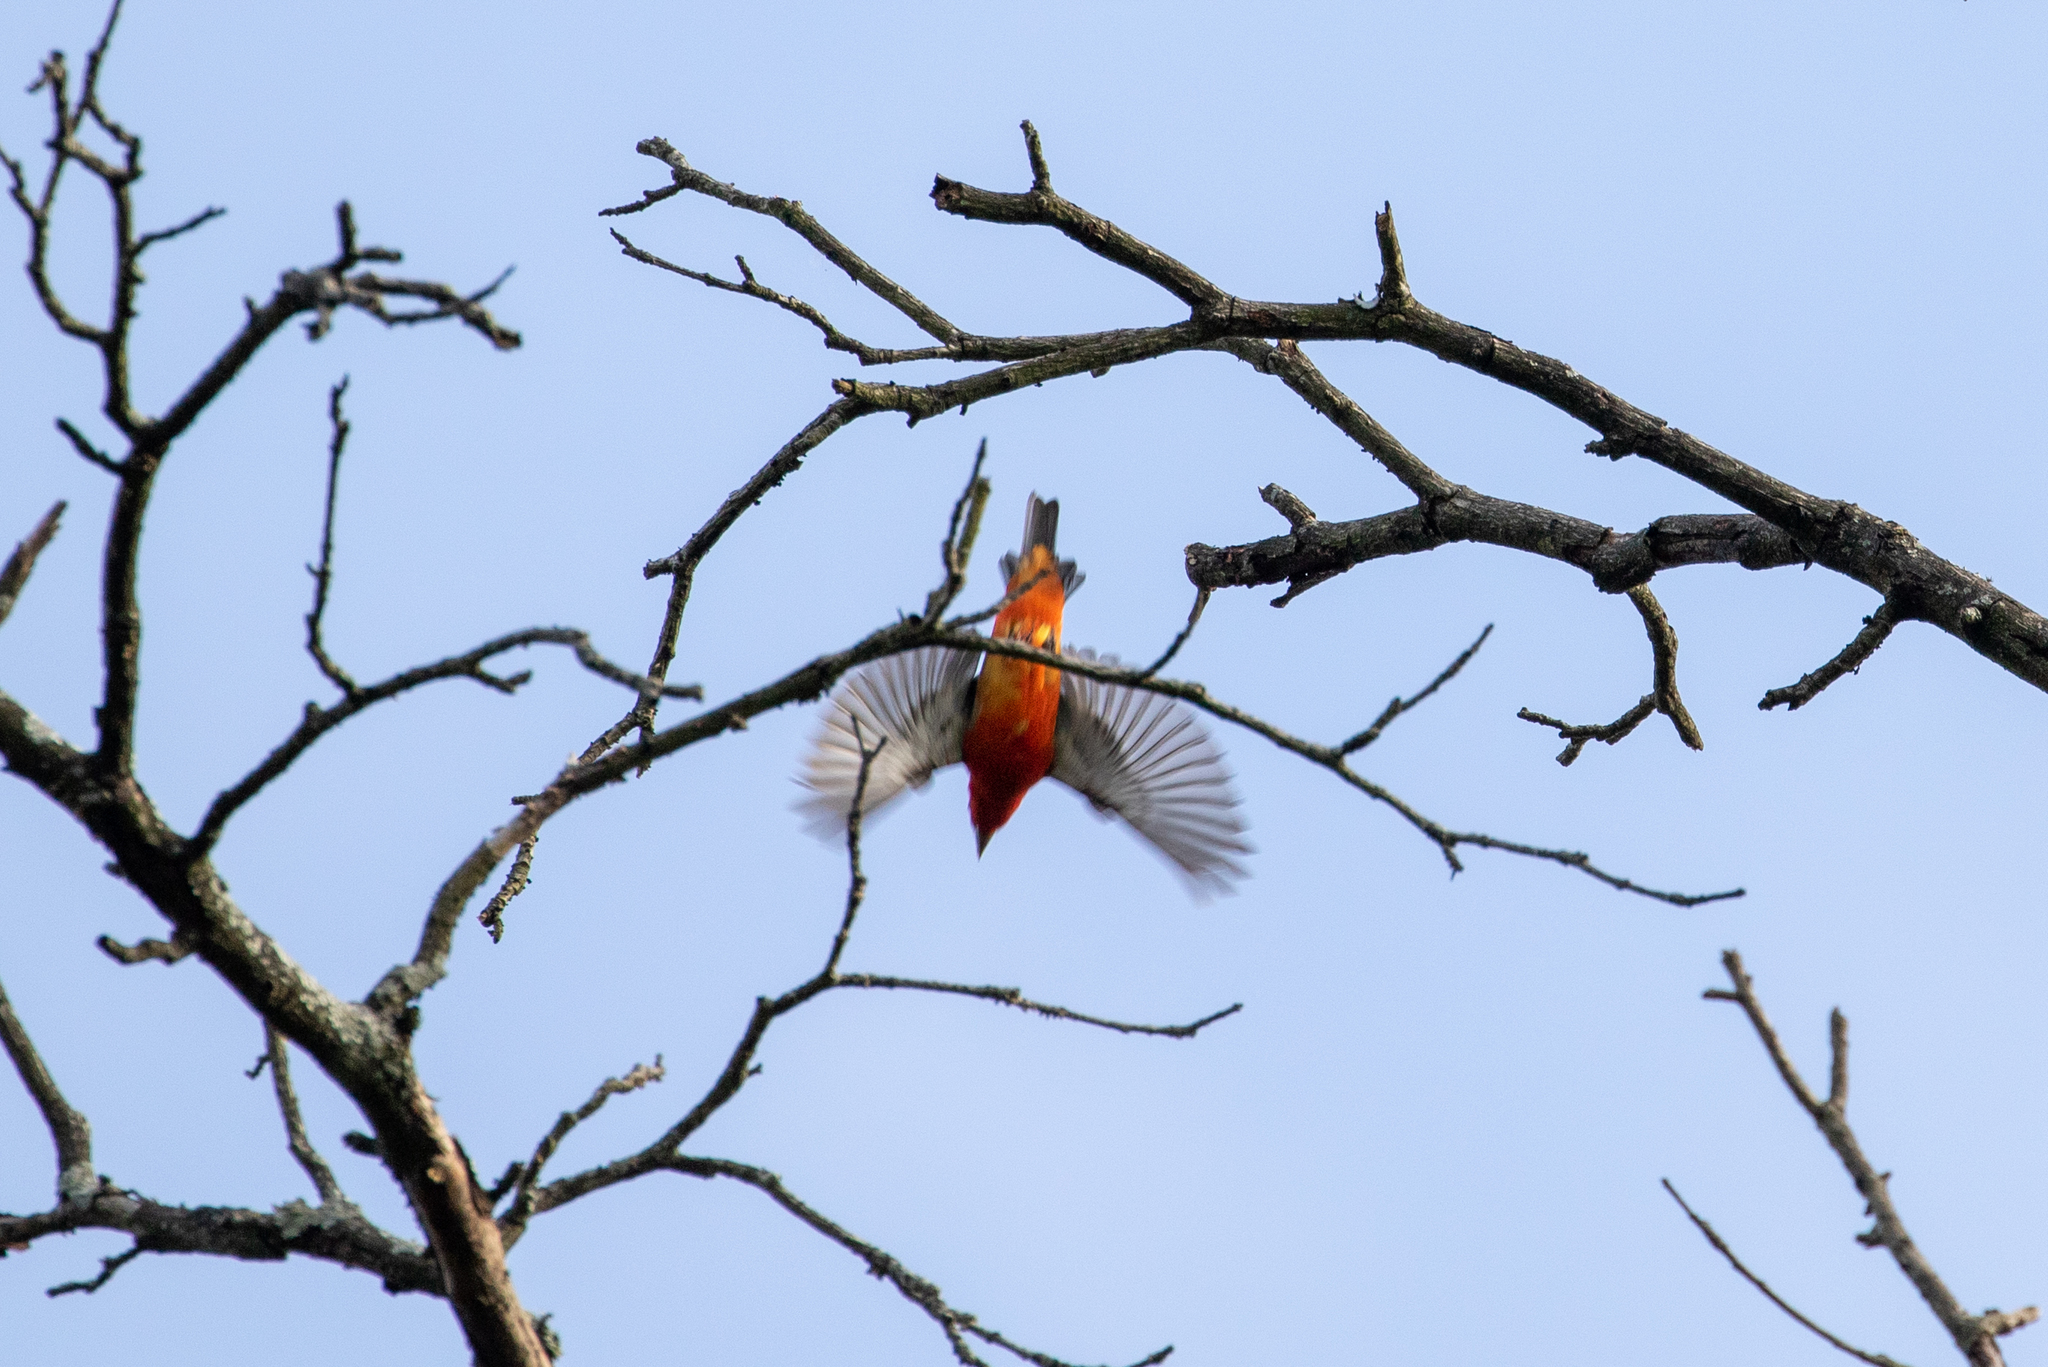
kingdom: Animalia
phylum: Chordata
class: Aves
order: Passeriformes
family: Cardinalidae
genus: Piranga
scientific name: Piranga olivacea
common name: Scarlet tanager
